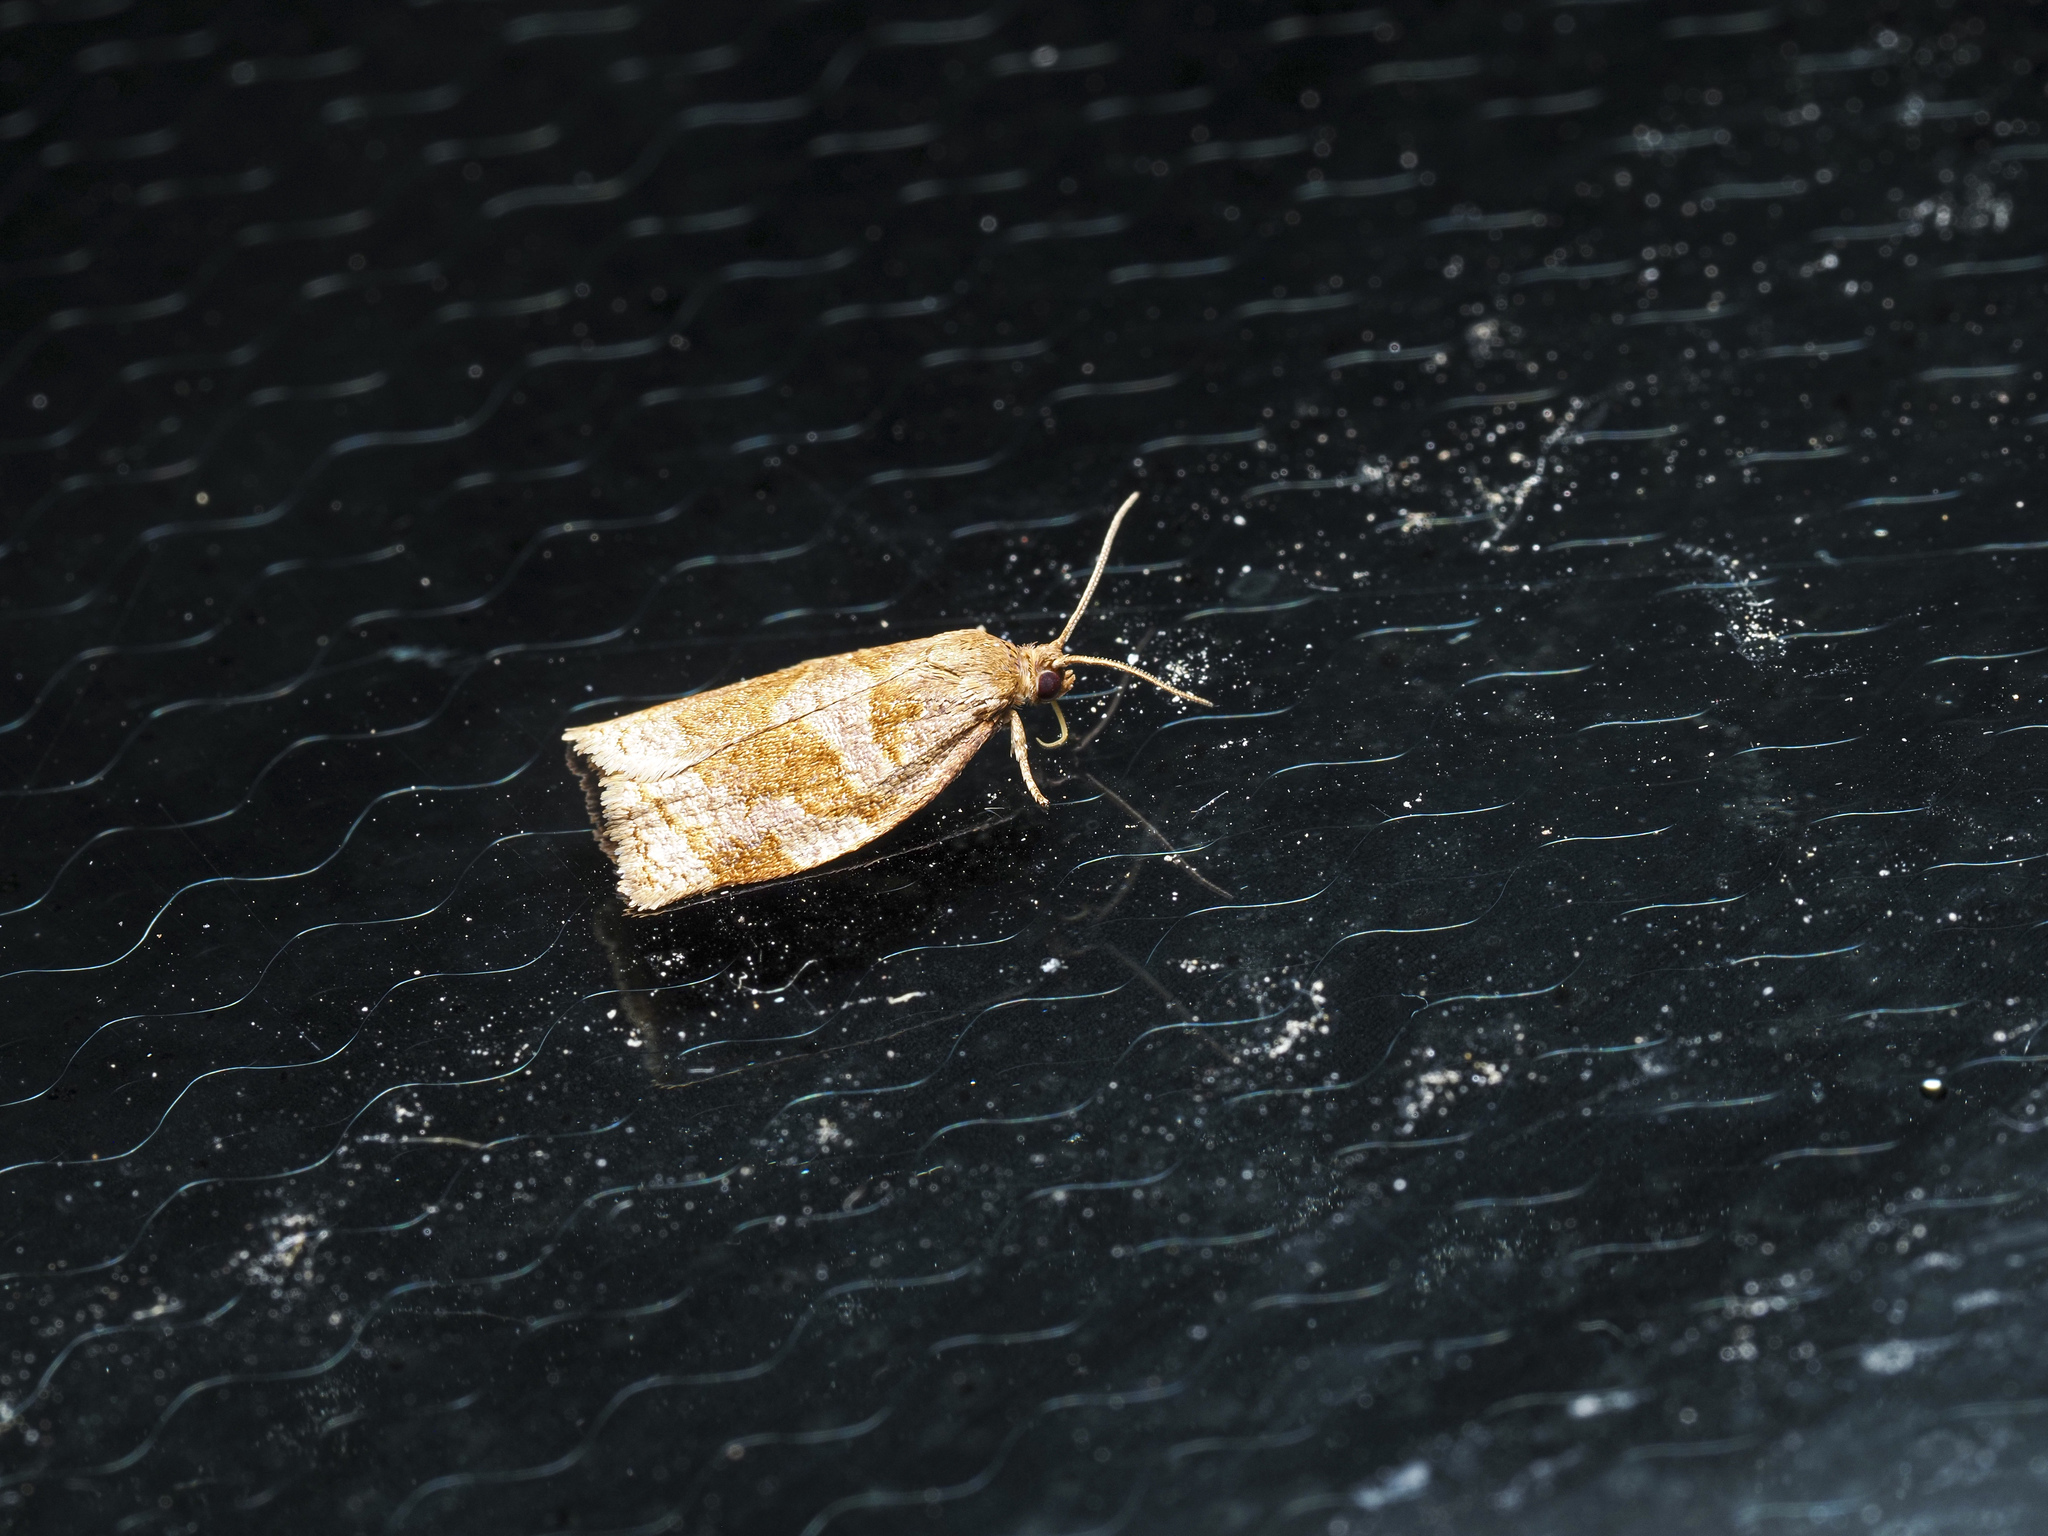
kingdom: Animalia
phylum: Arthropoda
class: Insecta
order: Lepidoptera
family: Tortricidae
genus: Archips
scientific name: Archips rosana
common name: Rose tortrix
